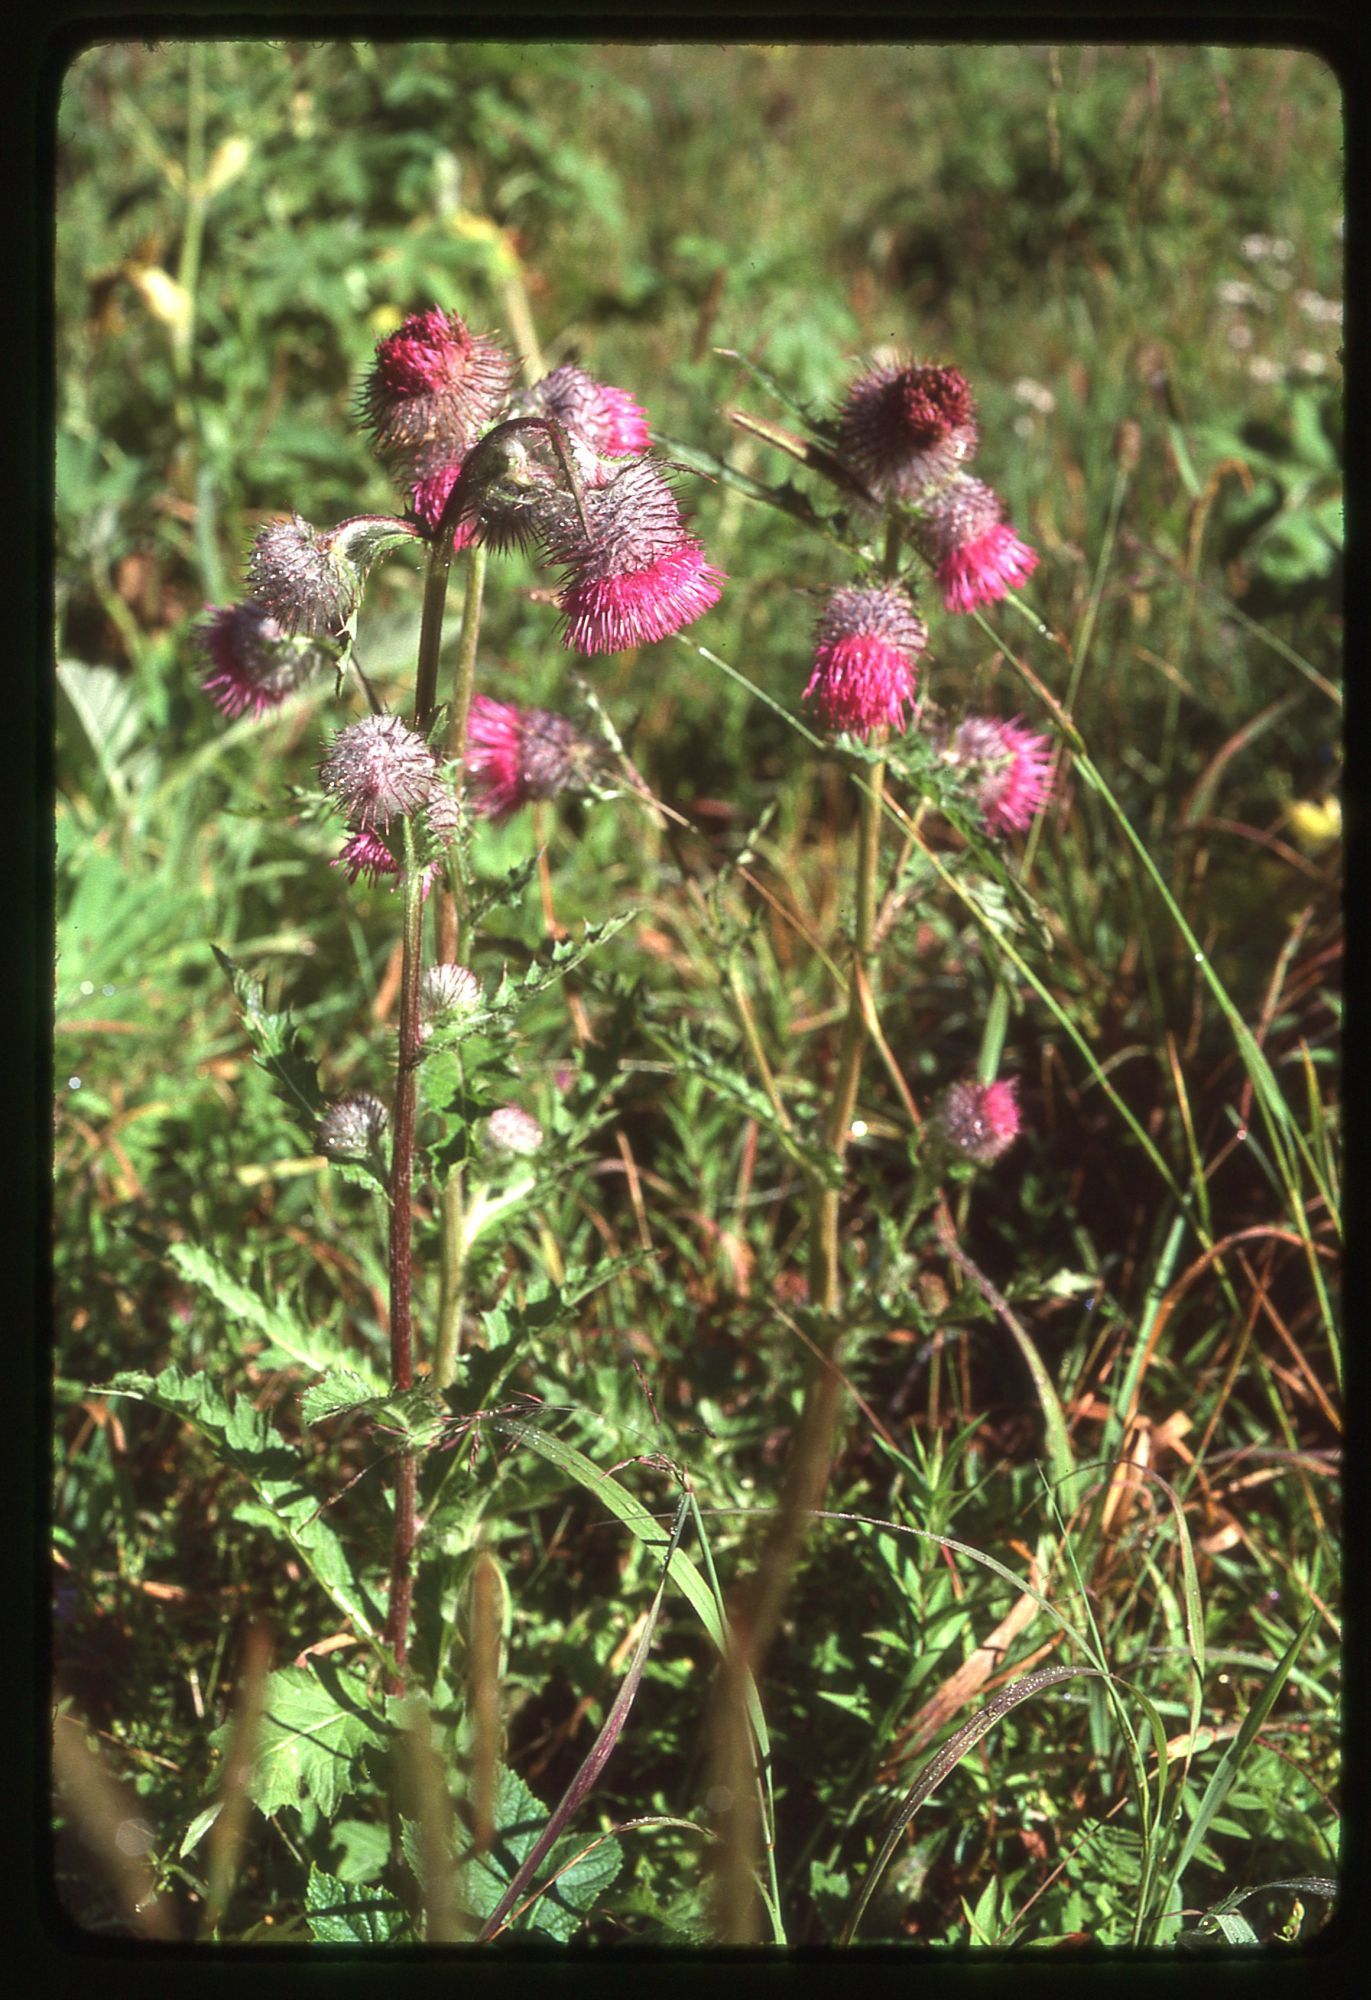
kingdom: Plantae
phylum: Tracheophyta
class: Magnoliopsida
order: Asterales
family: Asteraceae
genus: Cirsium
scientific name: Cirsium edule
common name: Indian thistle
